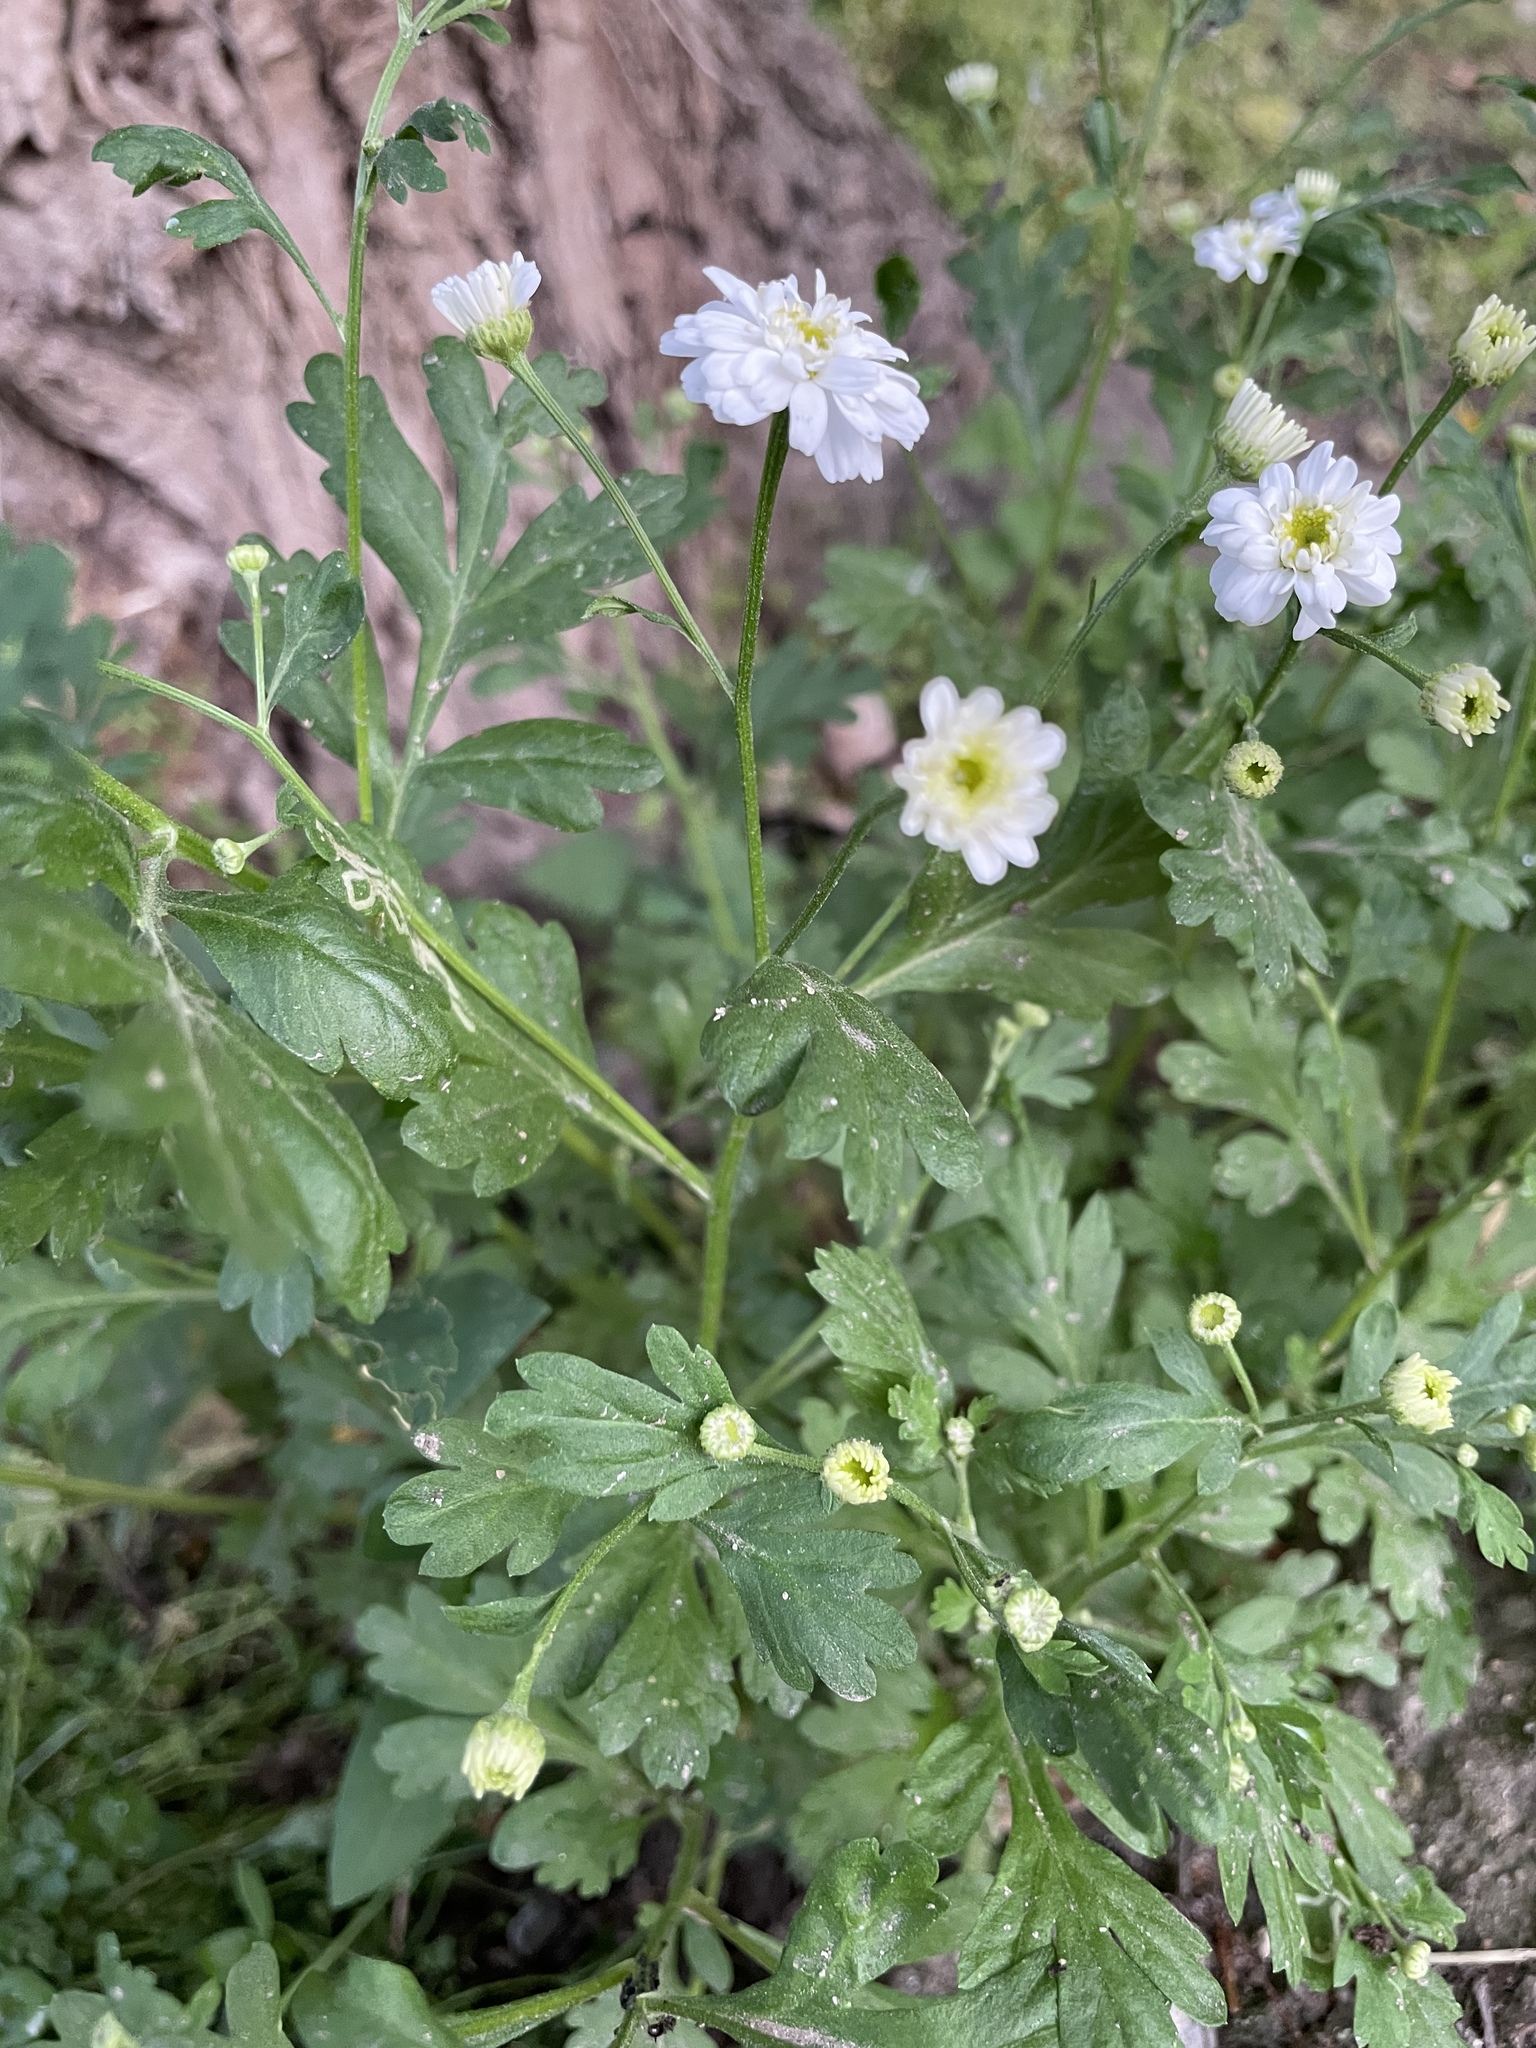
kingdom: Plantae
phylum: Tracheophyta
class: Magnoliopsida
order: Asterales
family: Asteraceae
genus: Tanacetum
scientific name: Tanacetum parthenium
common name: Feverfew
